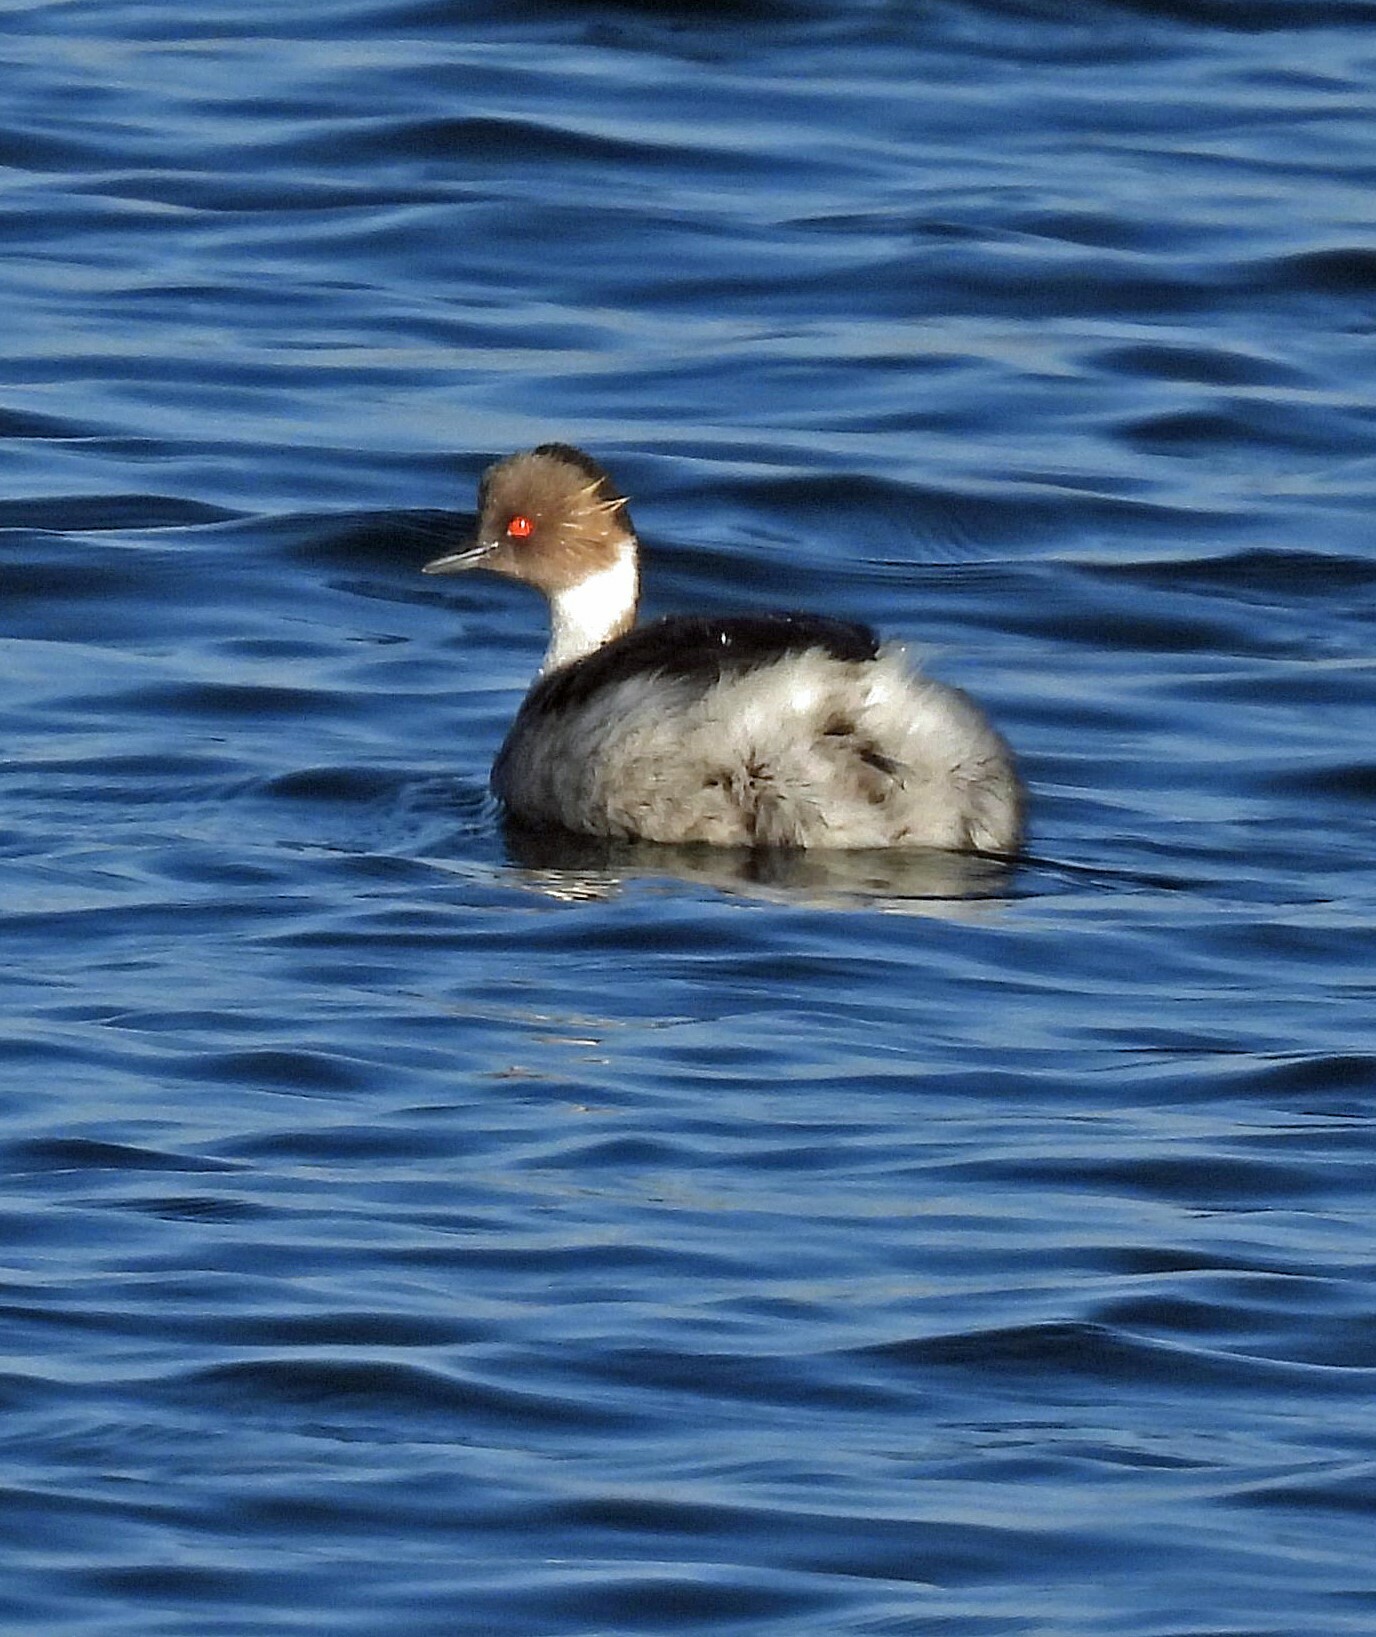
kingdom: Animalia
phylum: Chordata
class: Aves
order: Podicipediformes
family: Podicipedidae
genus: Podiceps
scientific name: Podiceps occipitalis
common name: Silvery grebe
